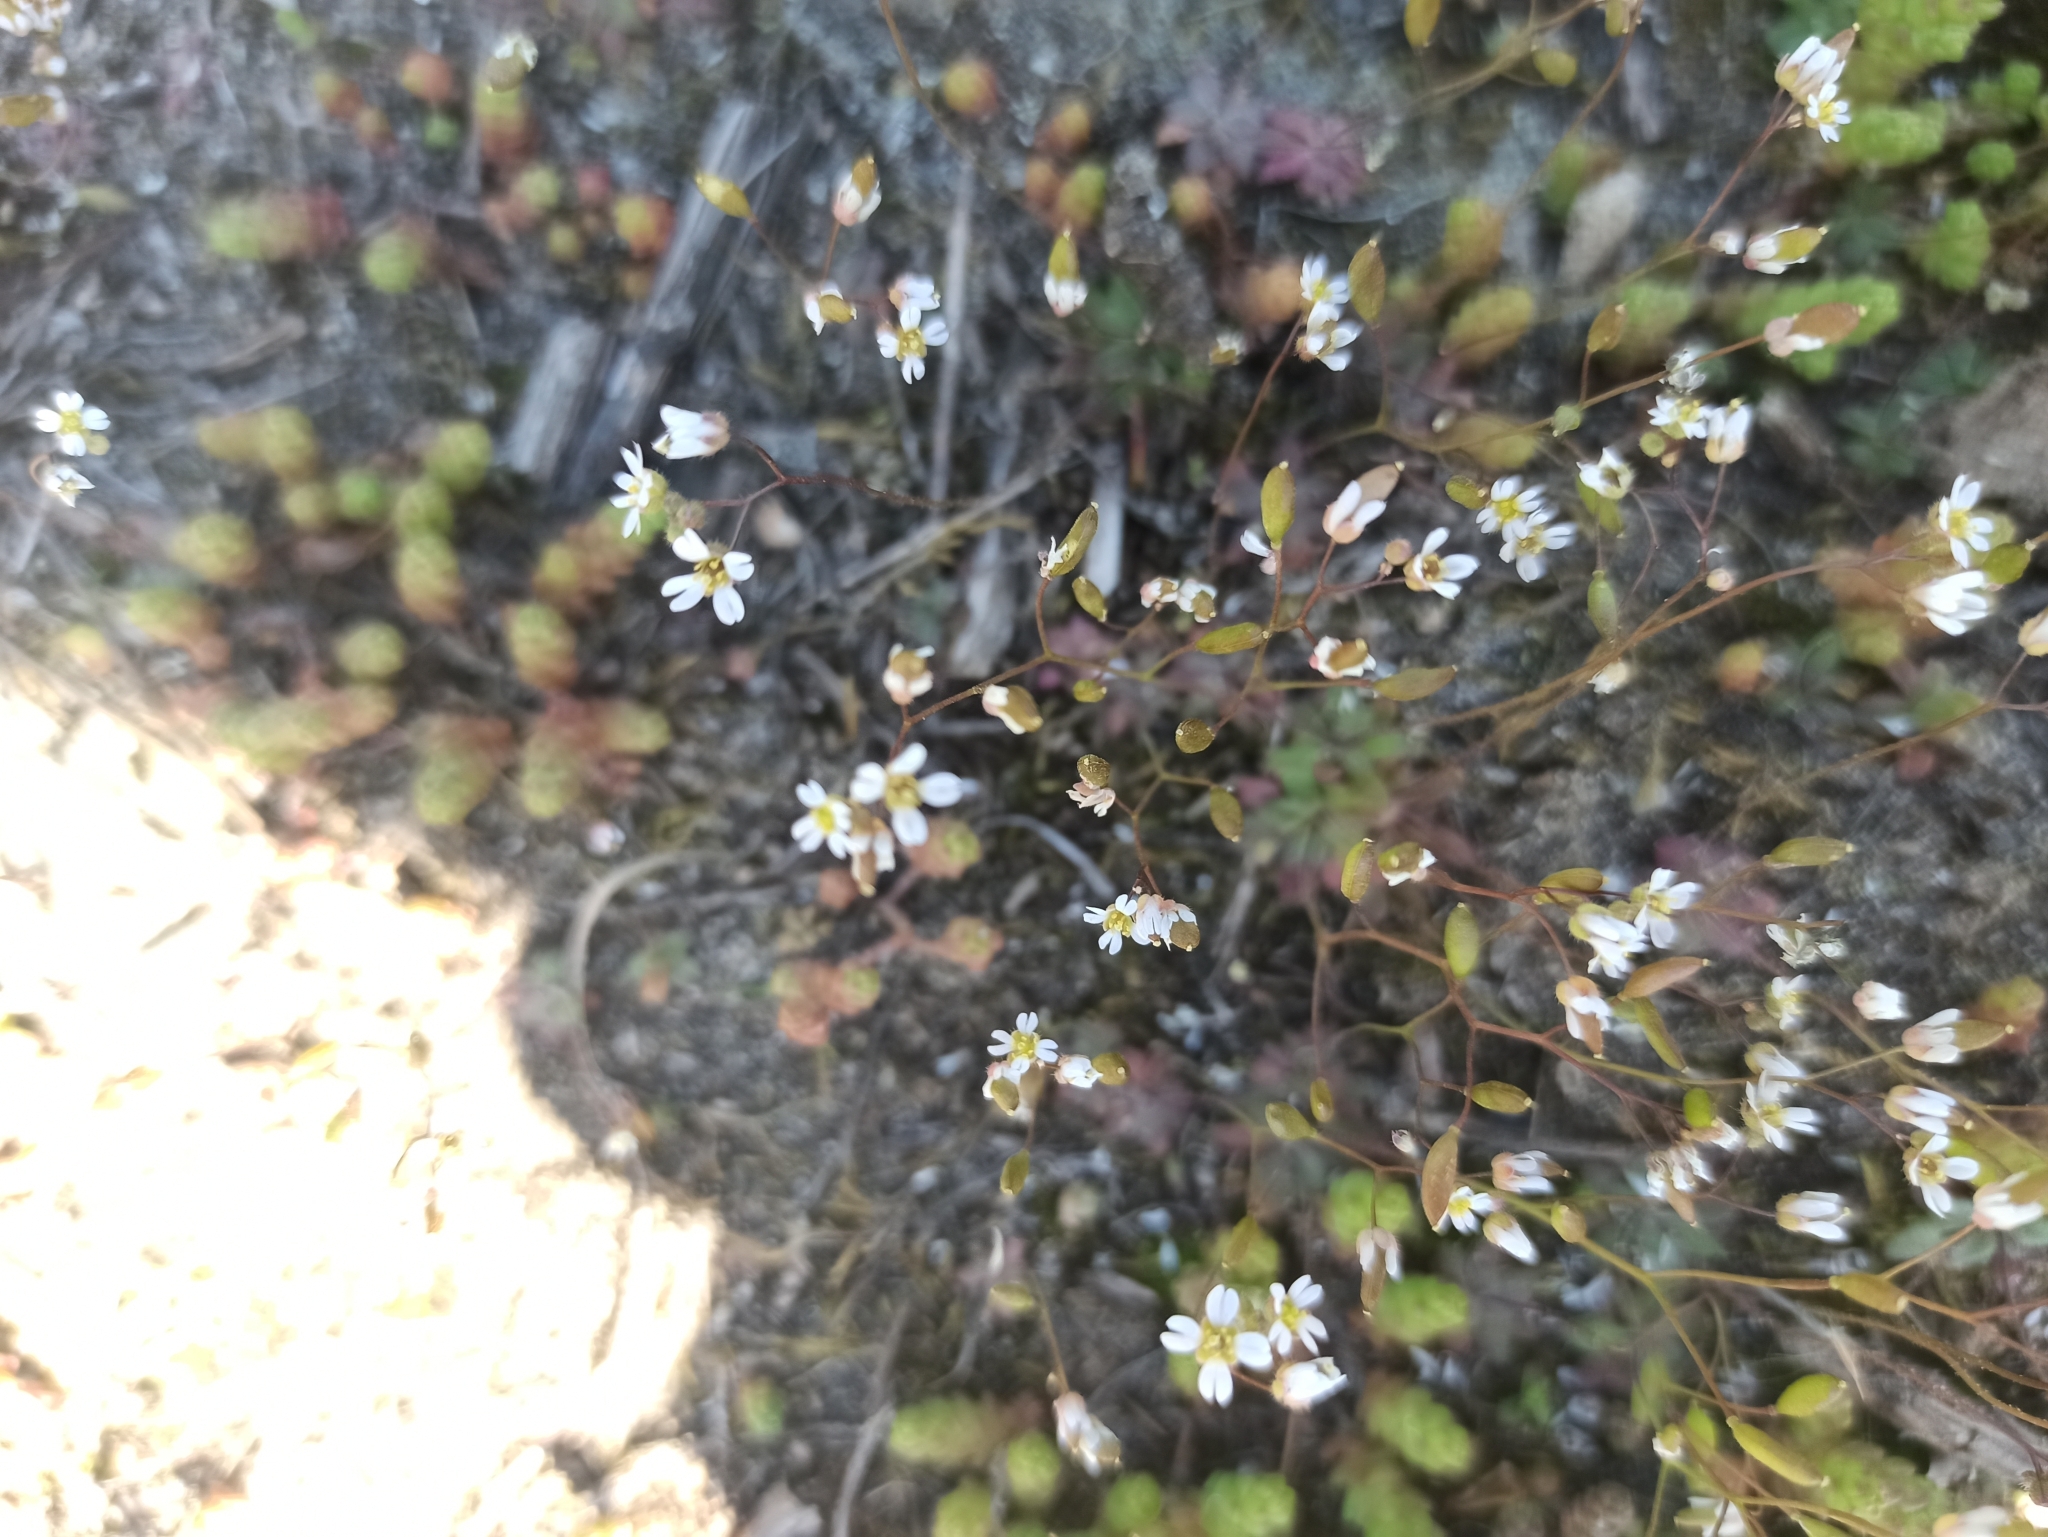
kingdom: Plantae
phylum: Tracheophyta
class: Magnoliopsida
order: Brassicales
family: Brassicaceae
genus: Draba
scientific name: Draba verna
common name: Spring draba
